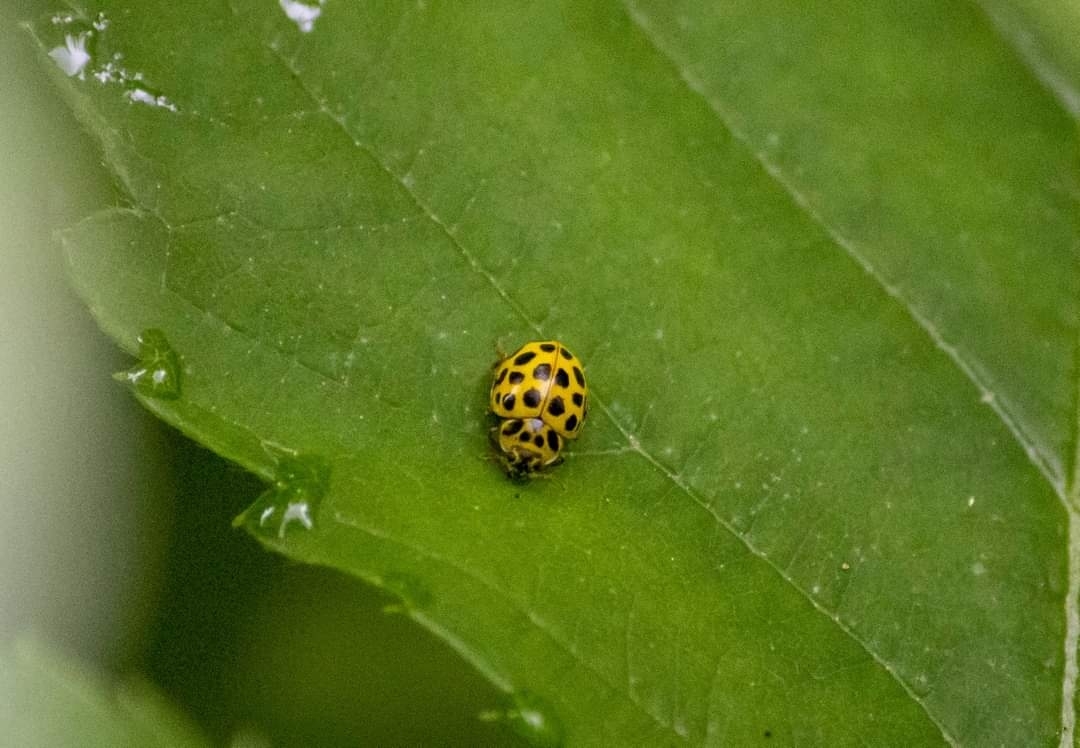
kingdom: Animalia
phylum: Arthropoda
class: Insecta
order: Coleoptera
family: Coccinellidae
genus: Psyllobora
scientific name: Psyllobora vigintiduopunctata
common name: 22-spot ladybird
